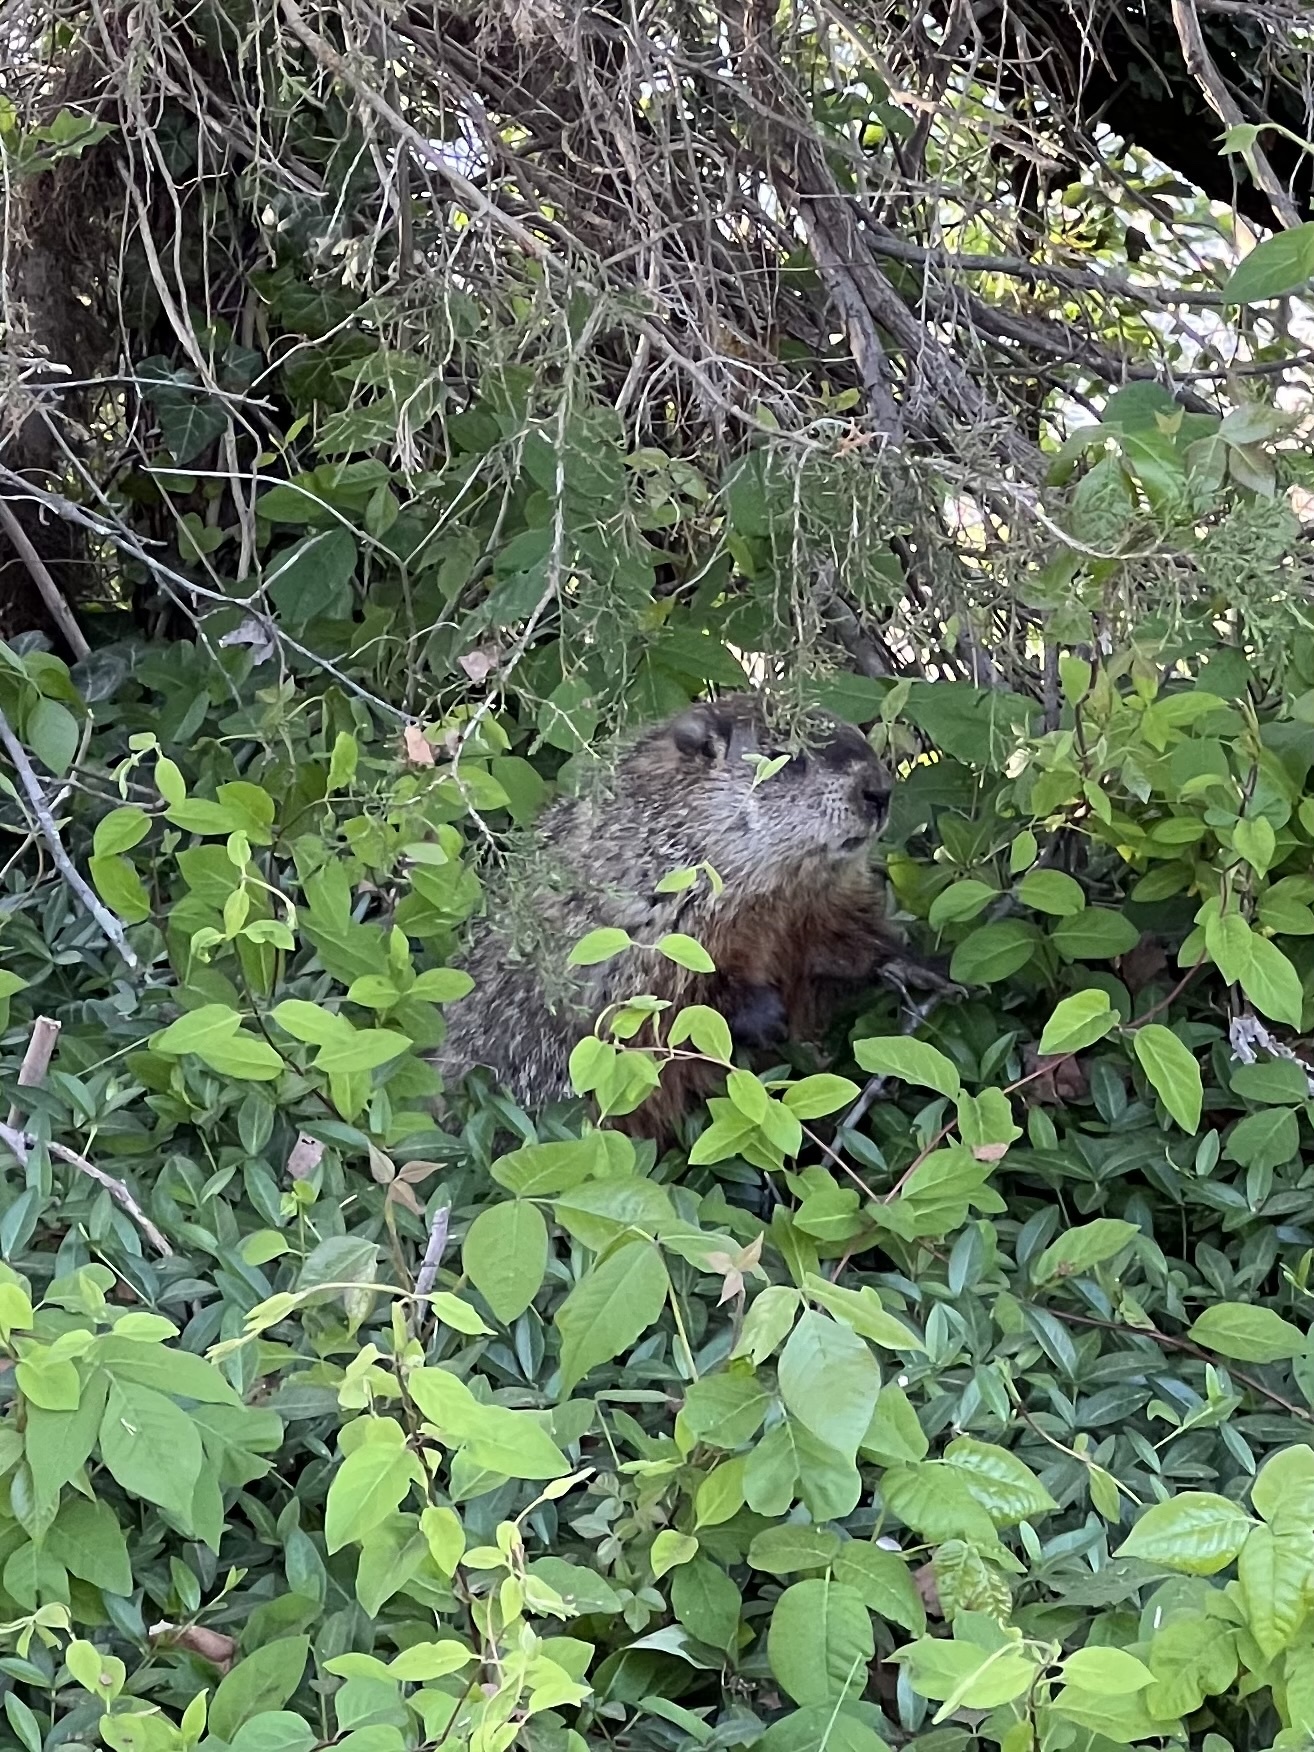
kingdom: Animalia
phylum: Chordata
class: Mammalia
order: Rodentia
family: Sciuridae
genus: Marmota
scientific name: Marmota monax
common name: Groundhog
